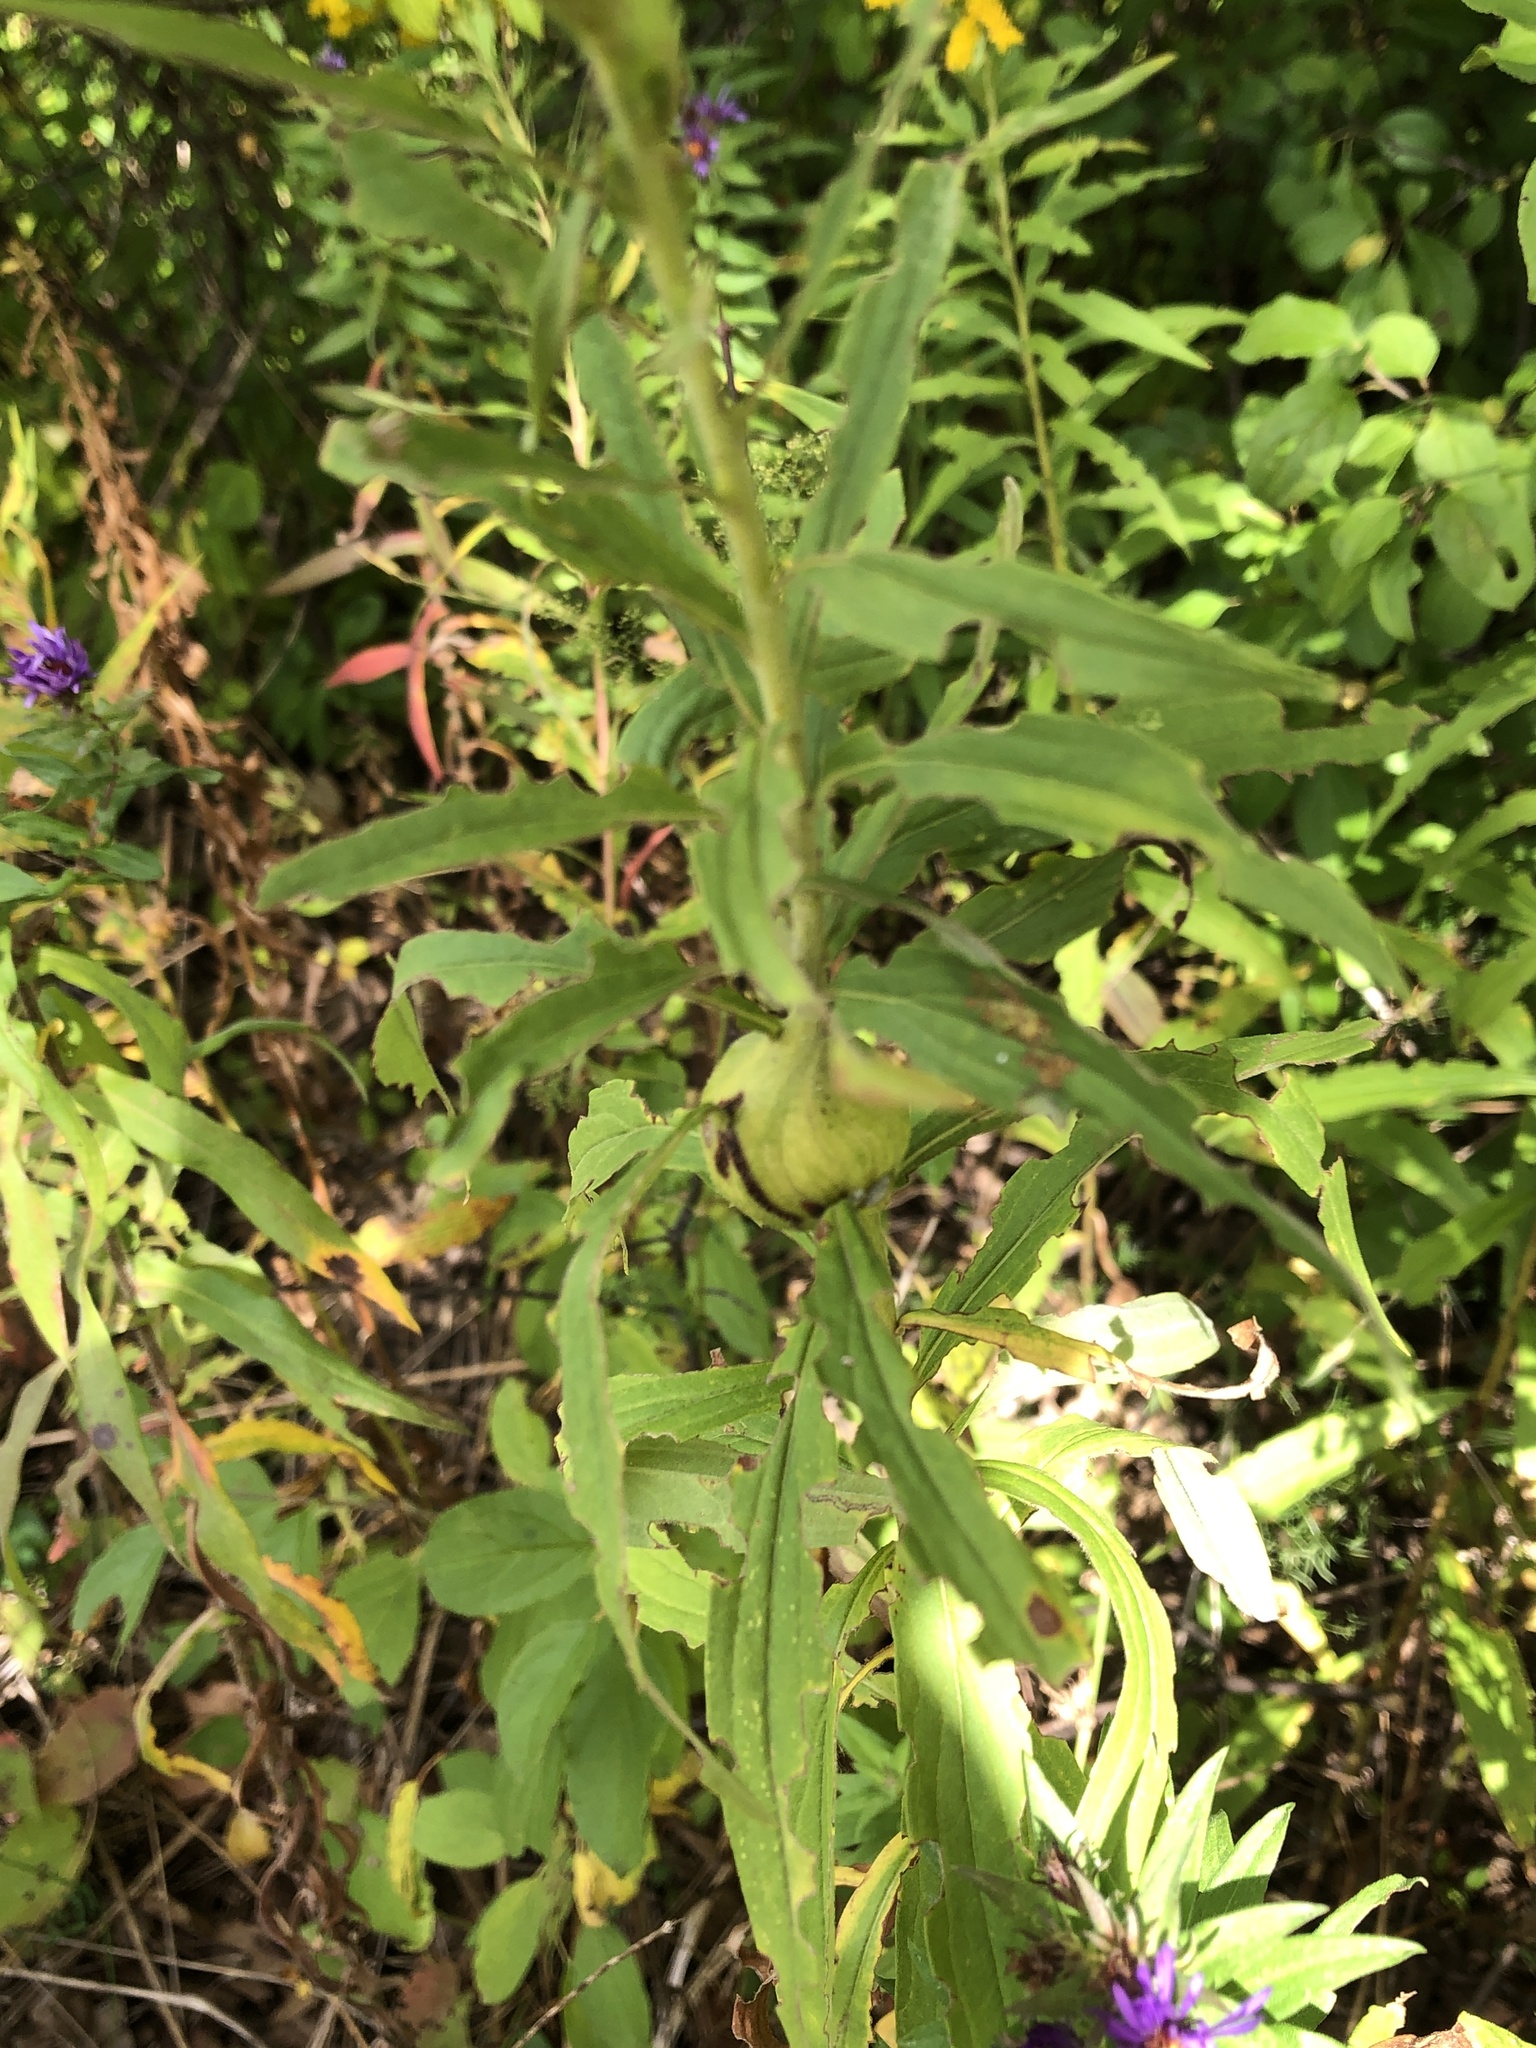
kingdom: Animalia
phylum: Arthropoda
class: Insecta
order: Diptera
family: Tephritidae
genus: Eurosta
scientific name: Eurosta solidaginis
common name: Goldenrod gall fly
